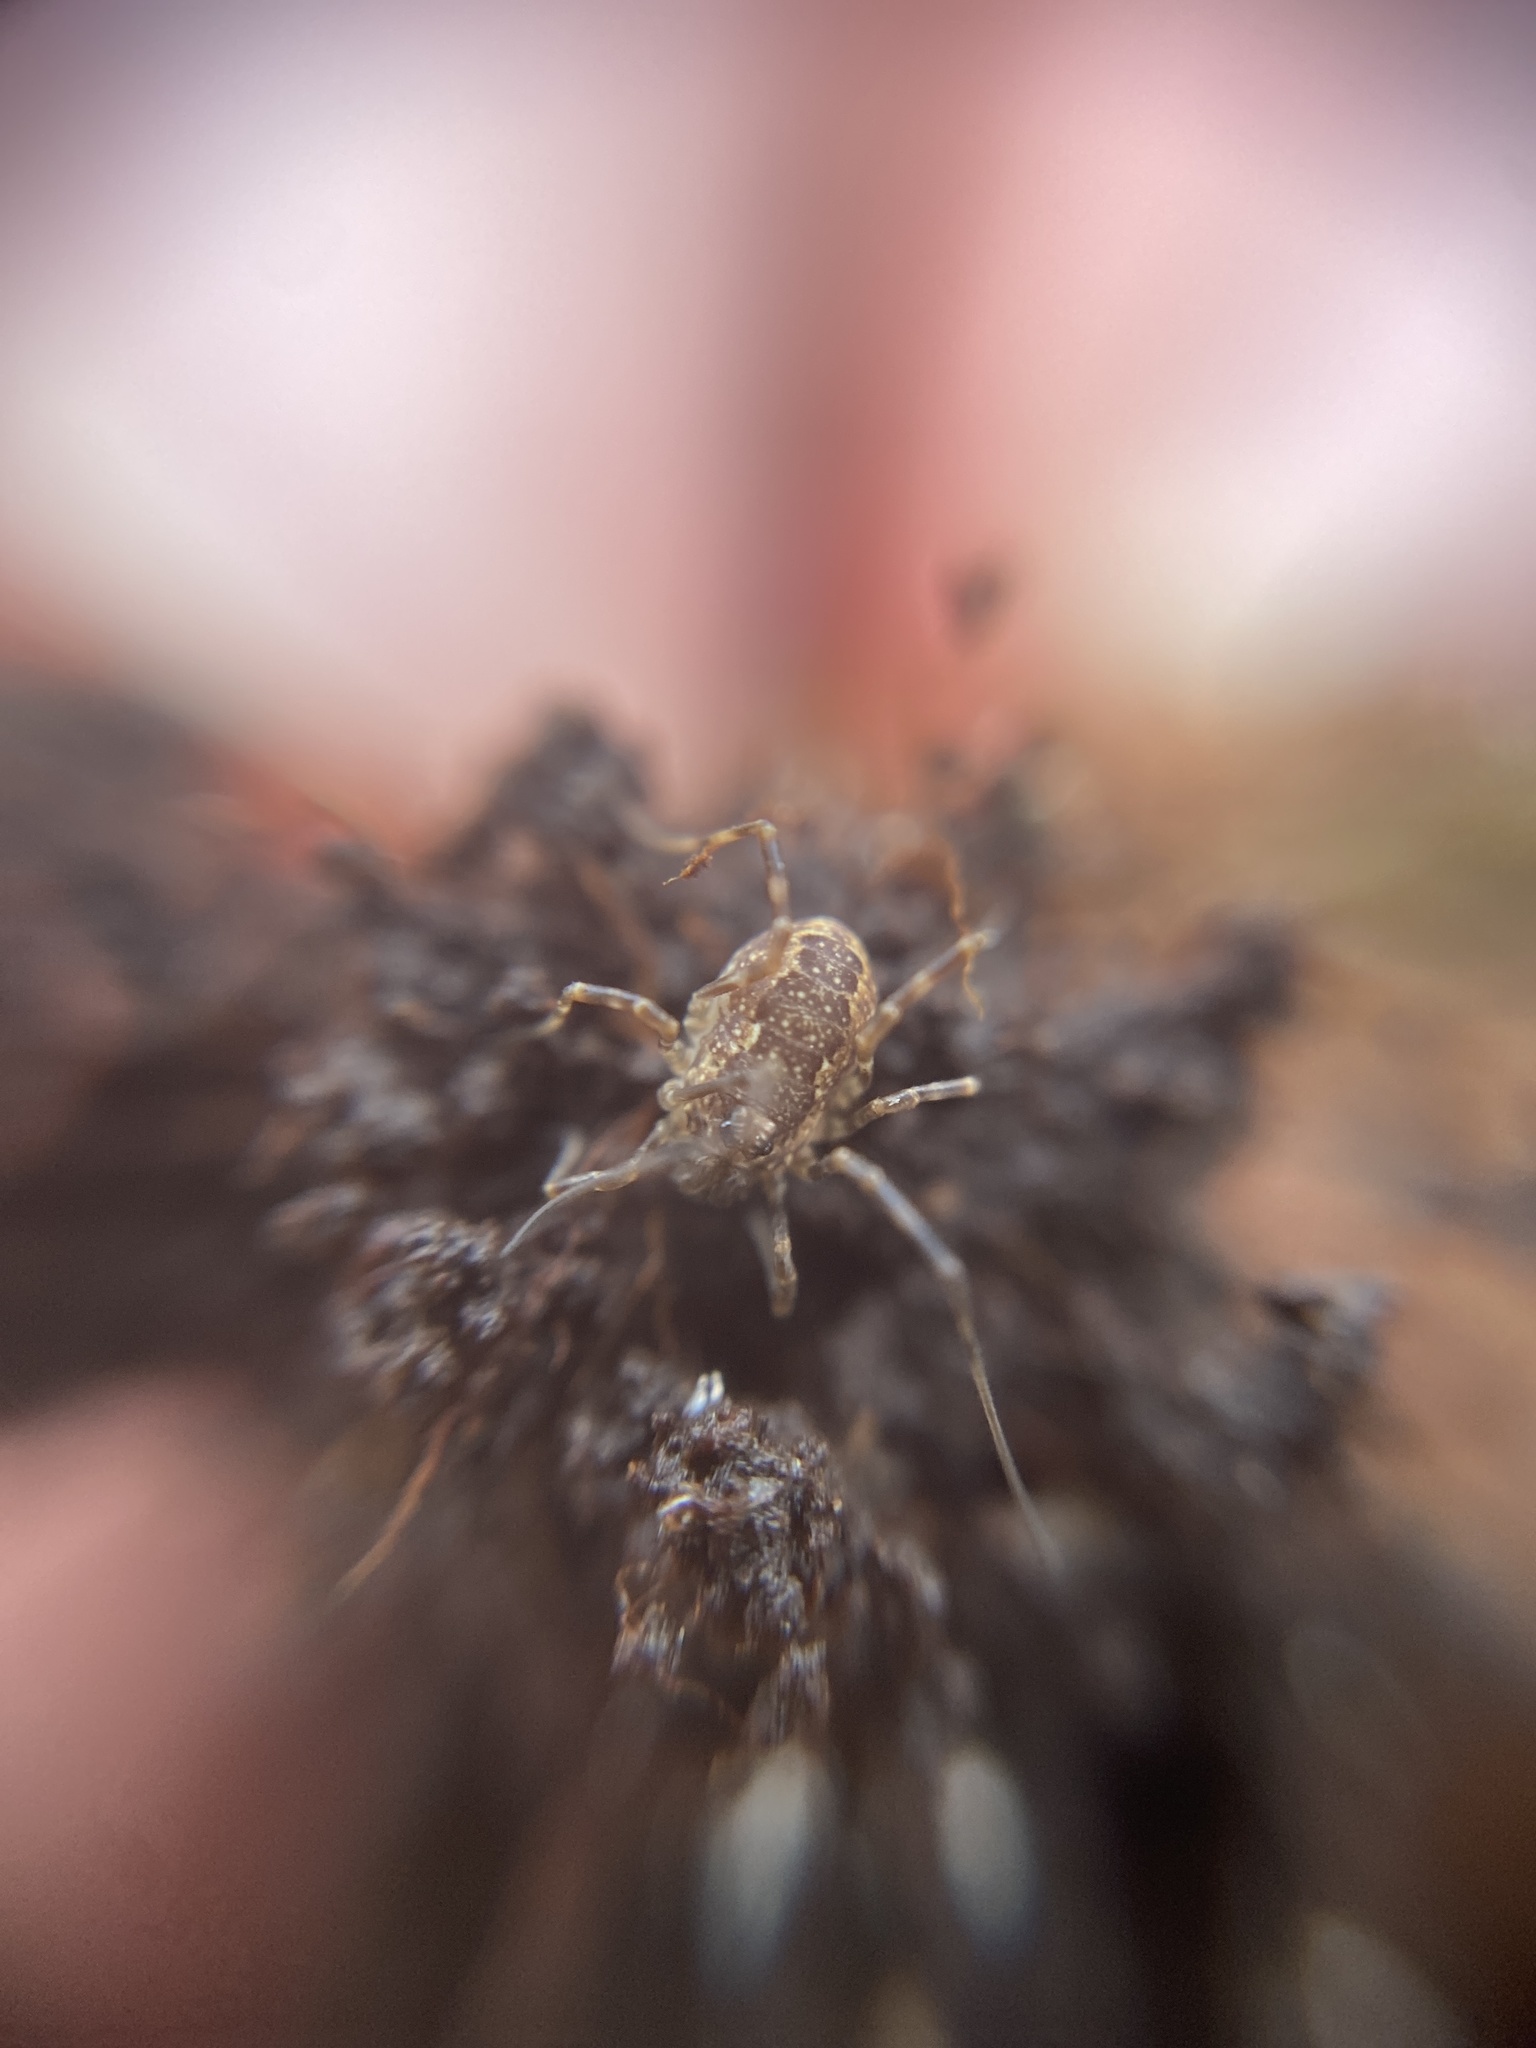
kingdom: Animalia
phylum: Arthropoda
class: Arachnida
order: Opiliones
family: Phalangiidae
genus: Rilaena
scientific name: Rilaena triangularis
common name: Spring harvestman
